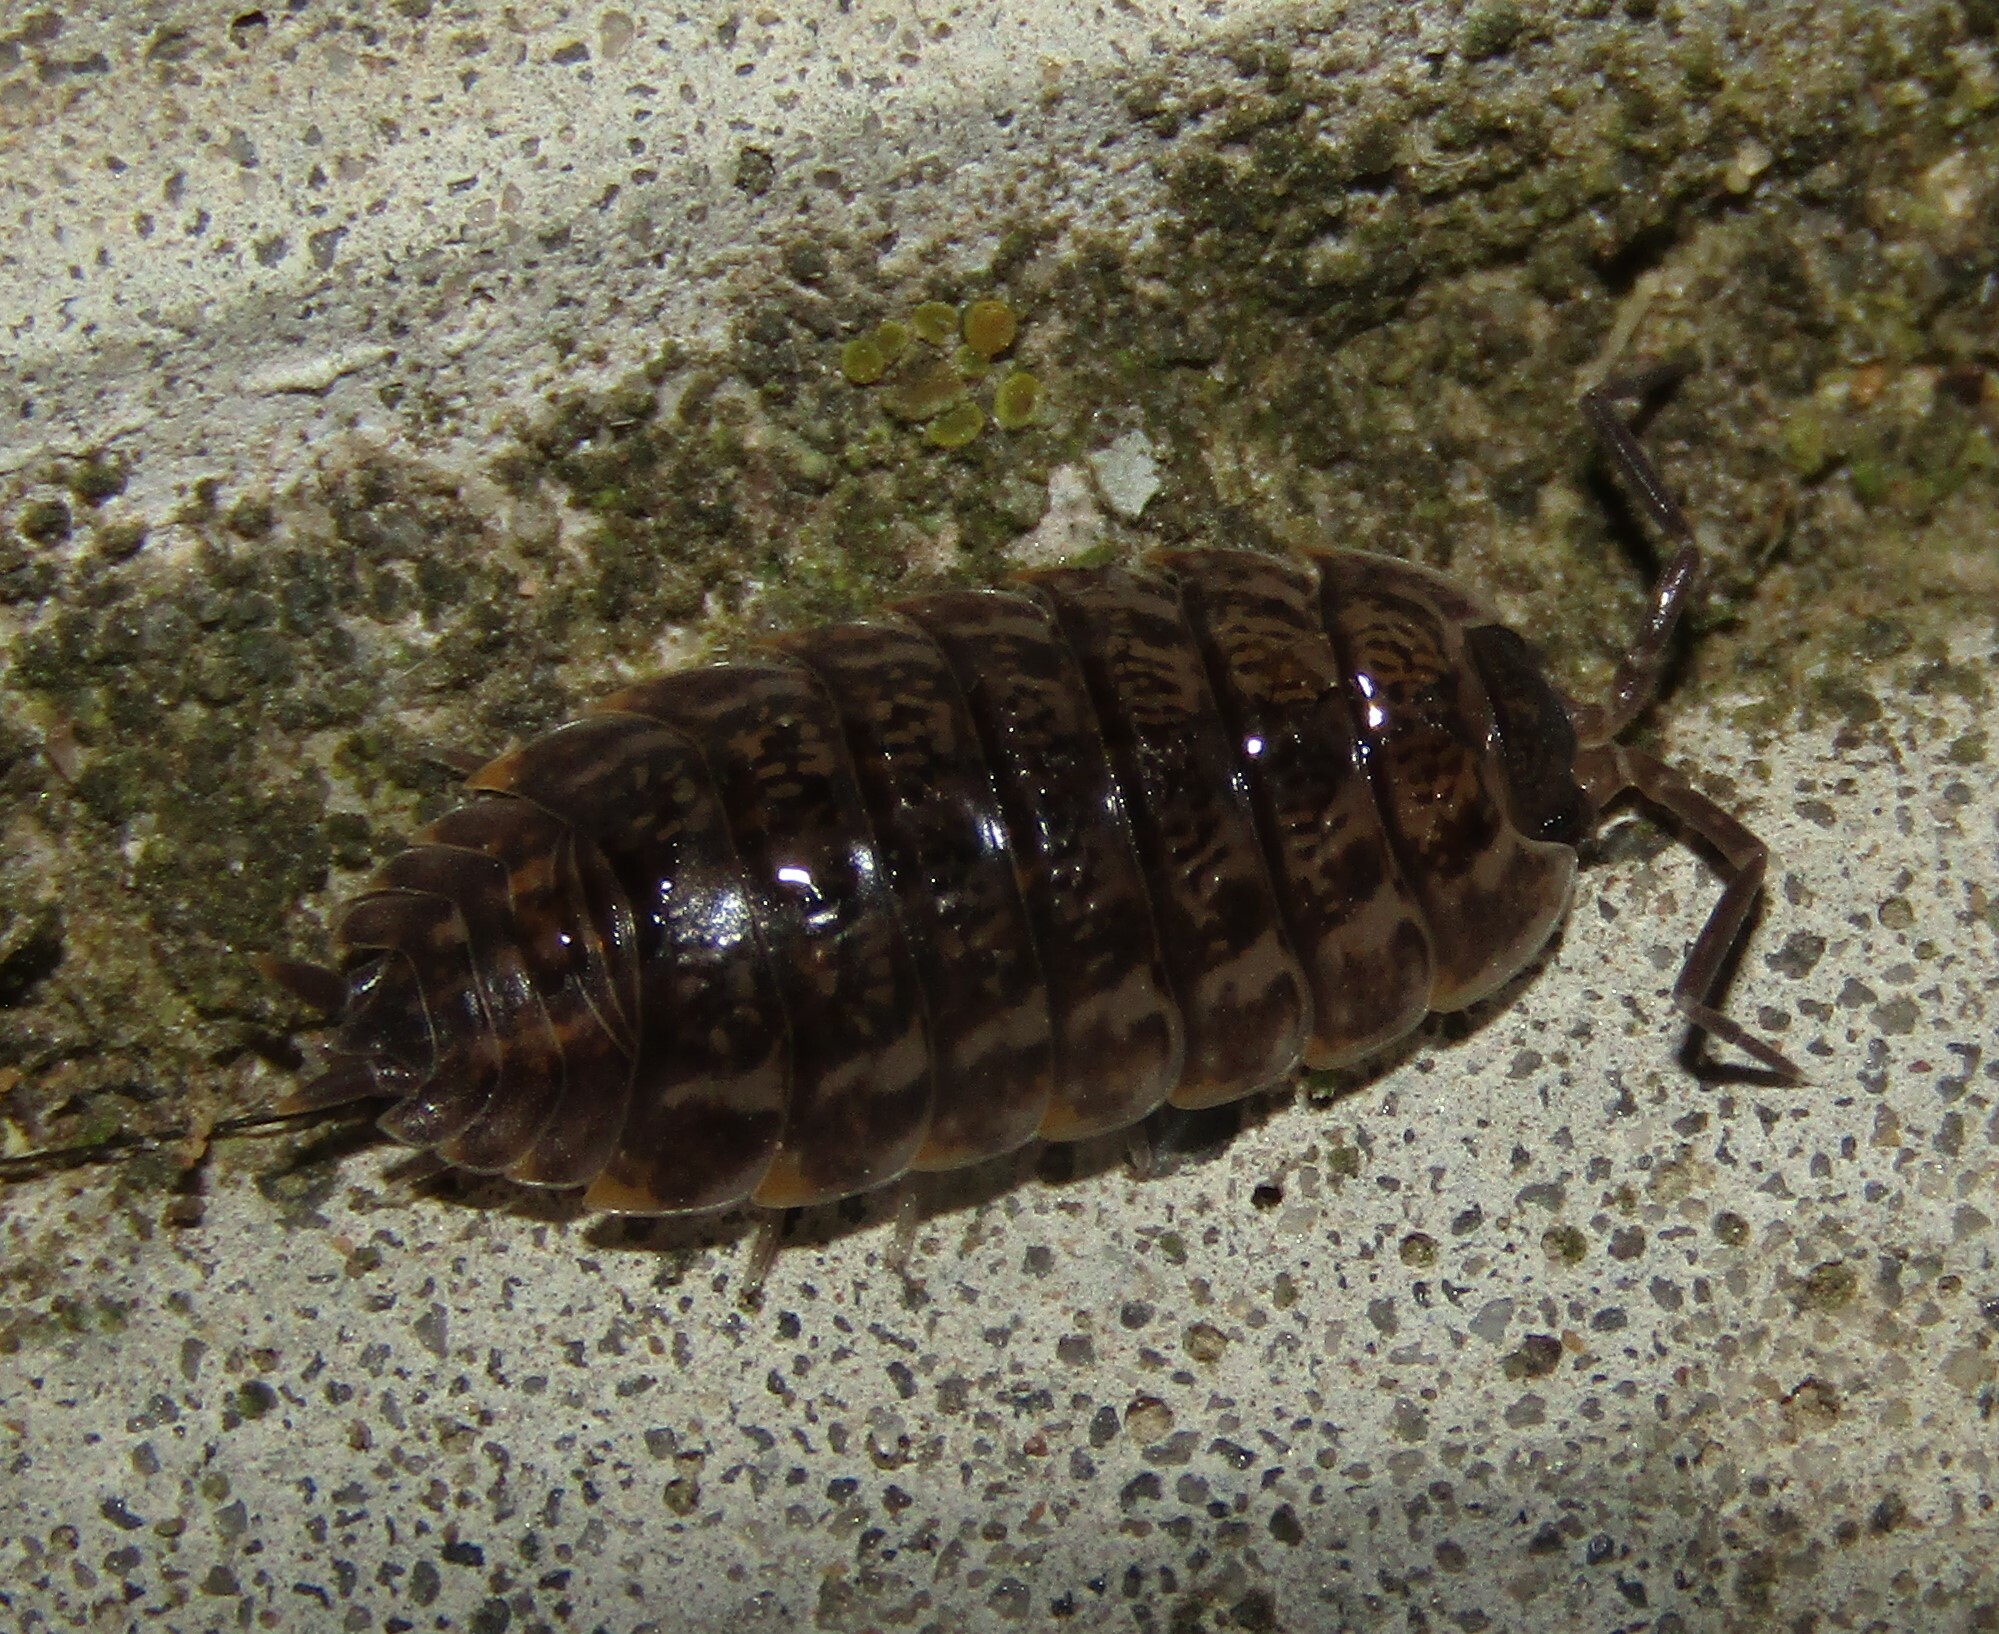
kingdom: Animalia
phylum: Arthropoda
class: Malacostraca
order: Isopoda
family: Trachelipodidae
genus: Trachelipus
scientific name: Trachelipus rathkii
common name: Isopod
